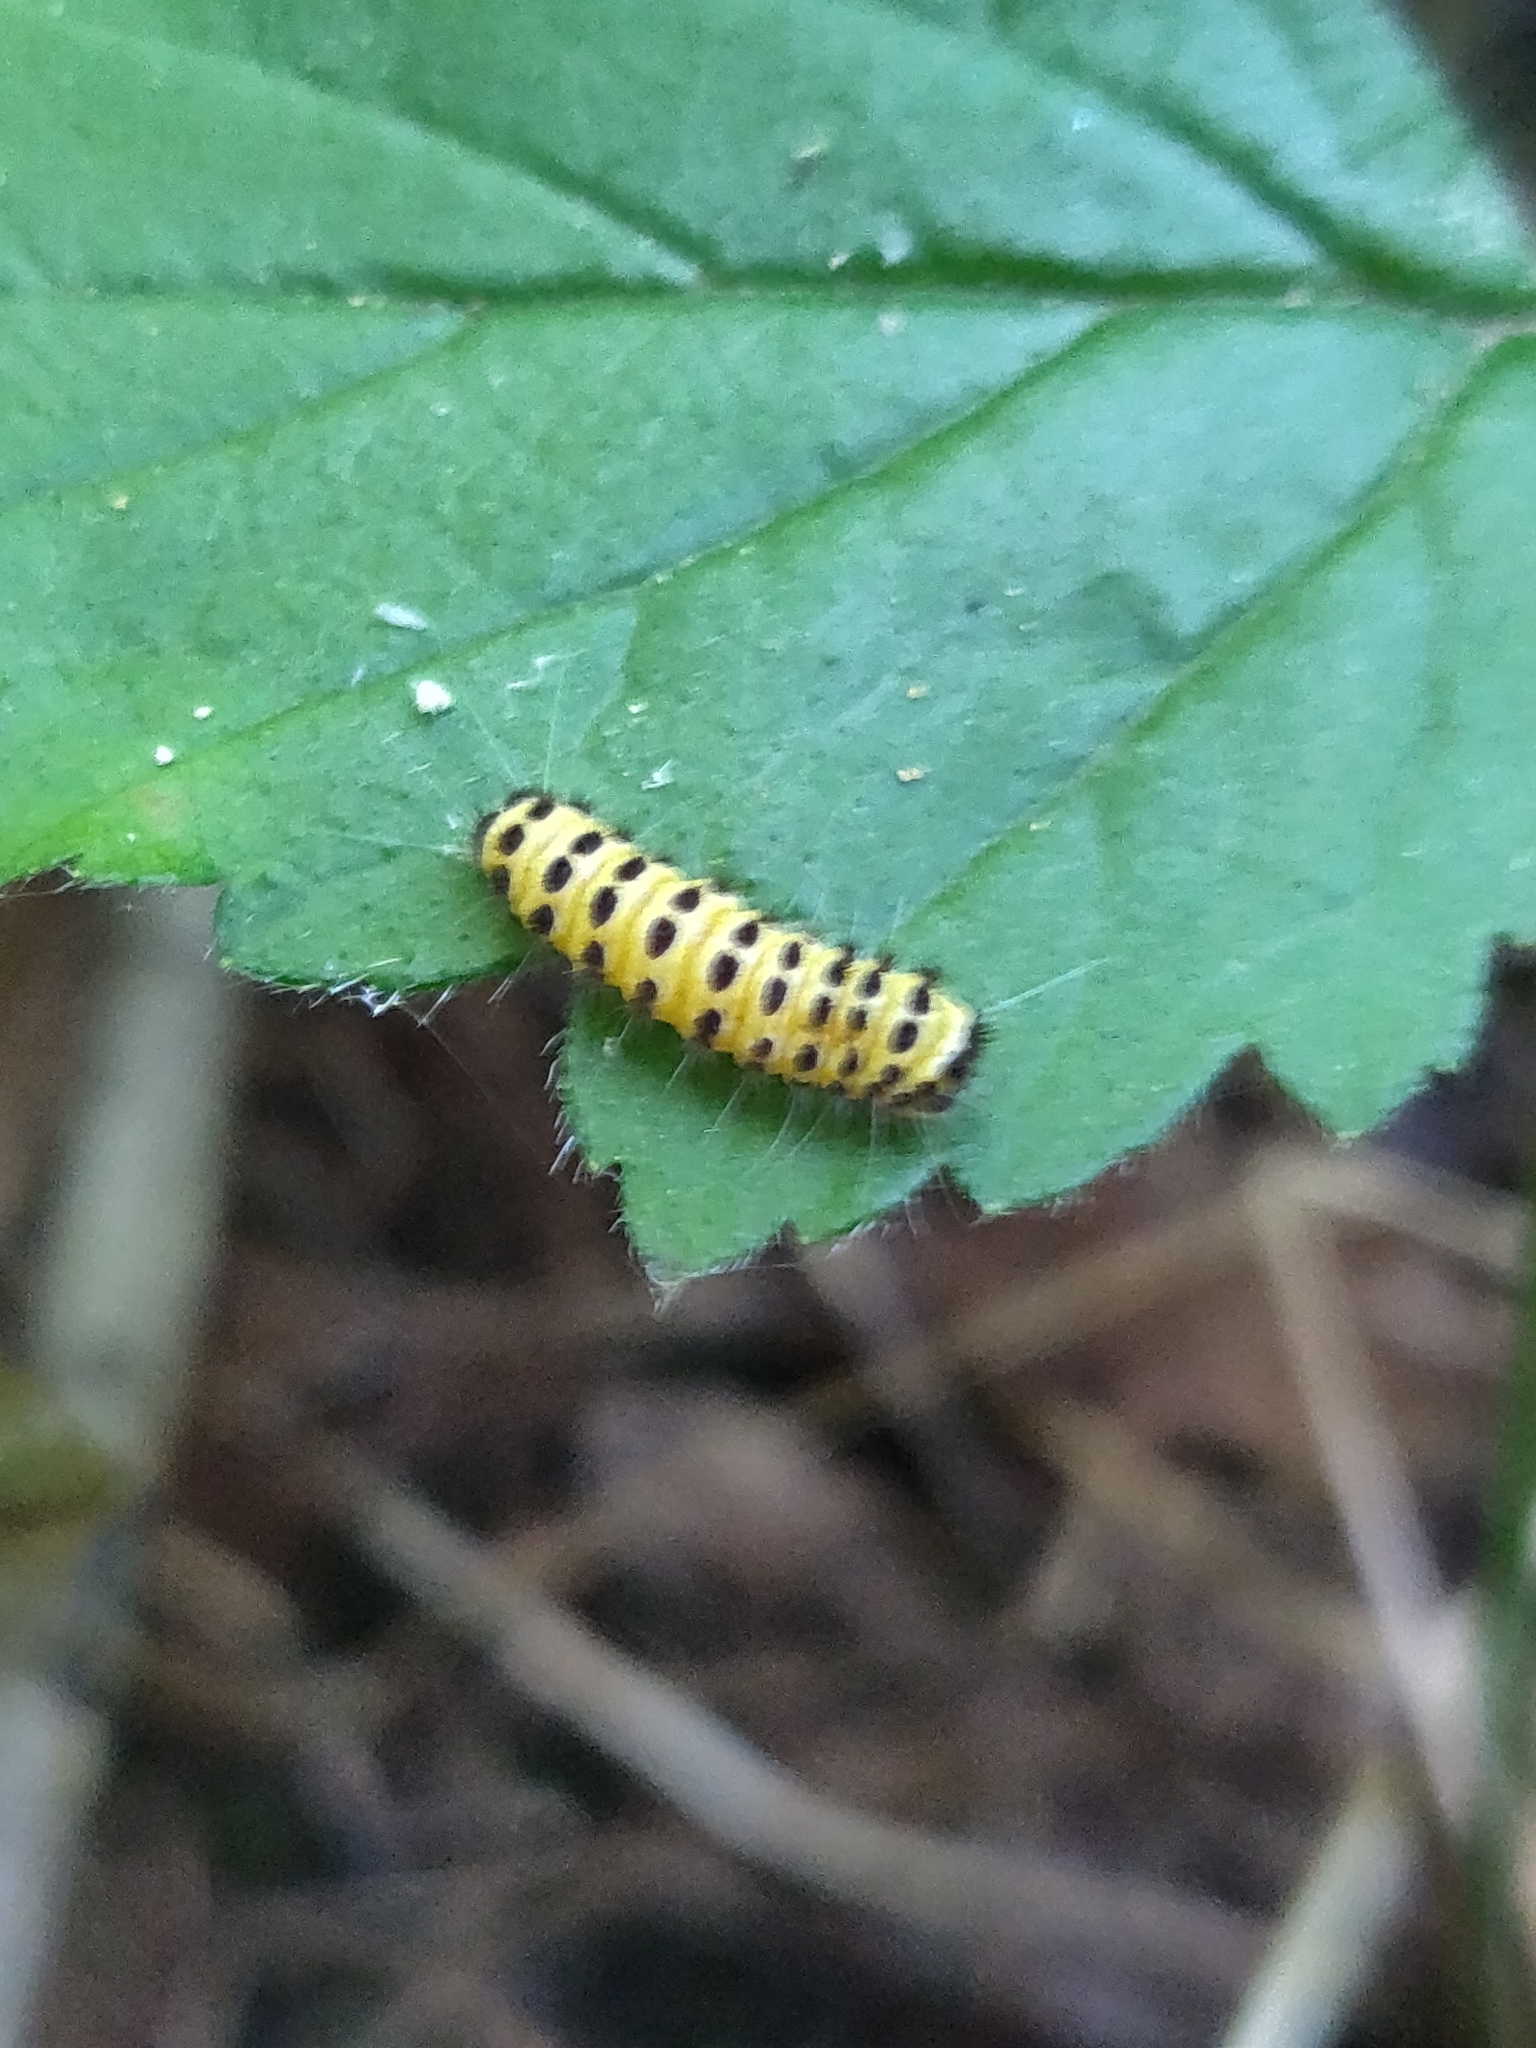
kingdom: Animalia
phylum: Arthropoda
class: Insecta
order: Lepidoptera
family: Zygaenidae
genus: Harrisina
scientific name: Harrisina americana
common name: Grapeleaf skeletonizer moth
